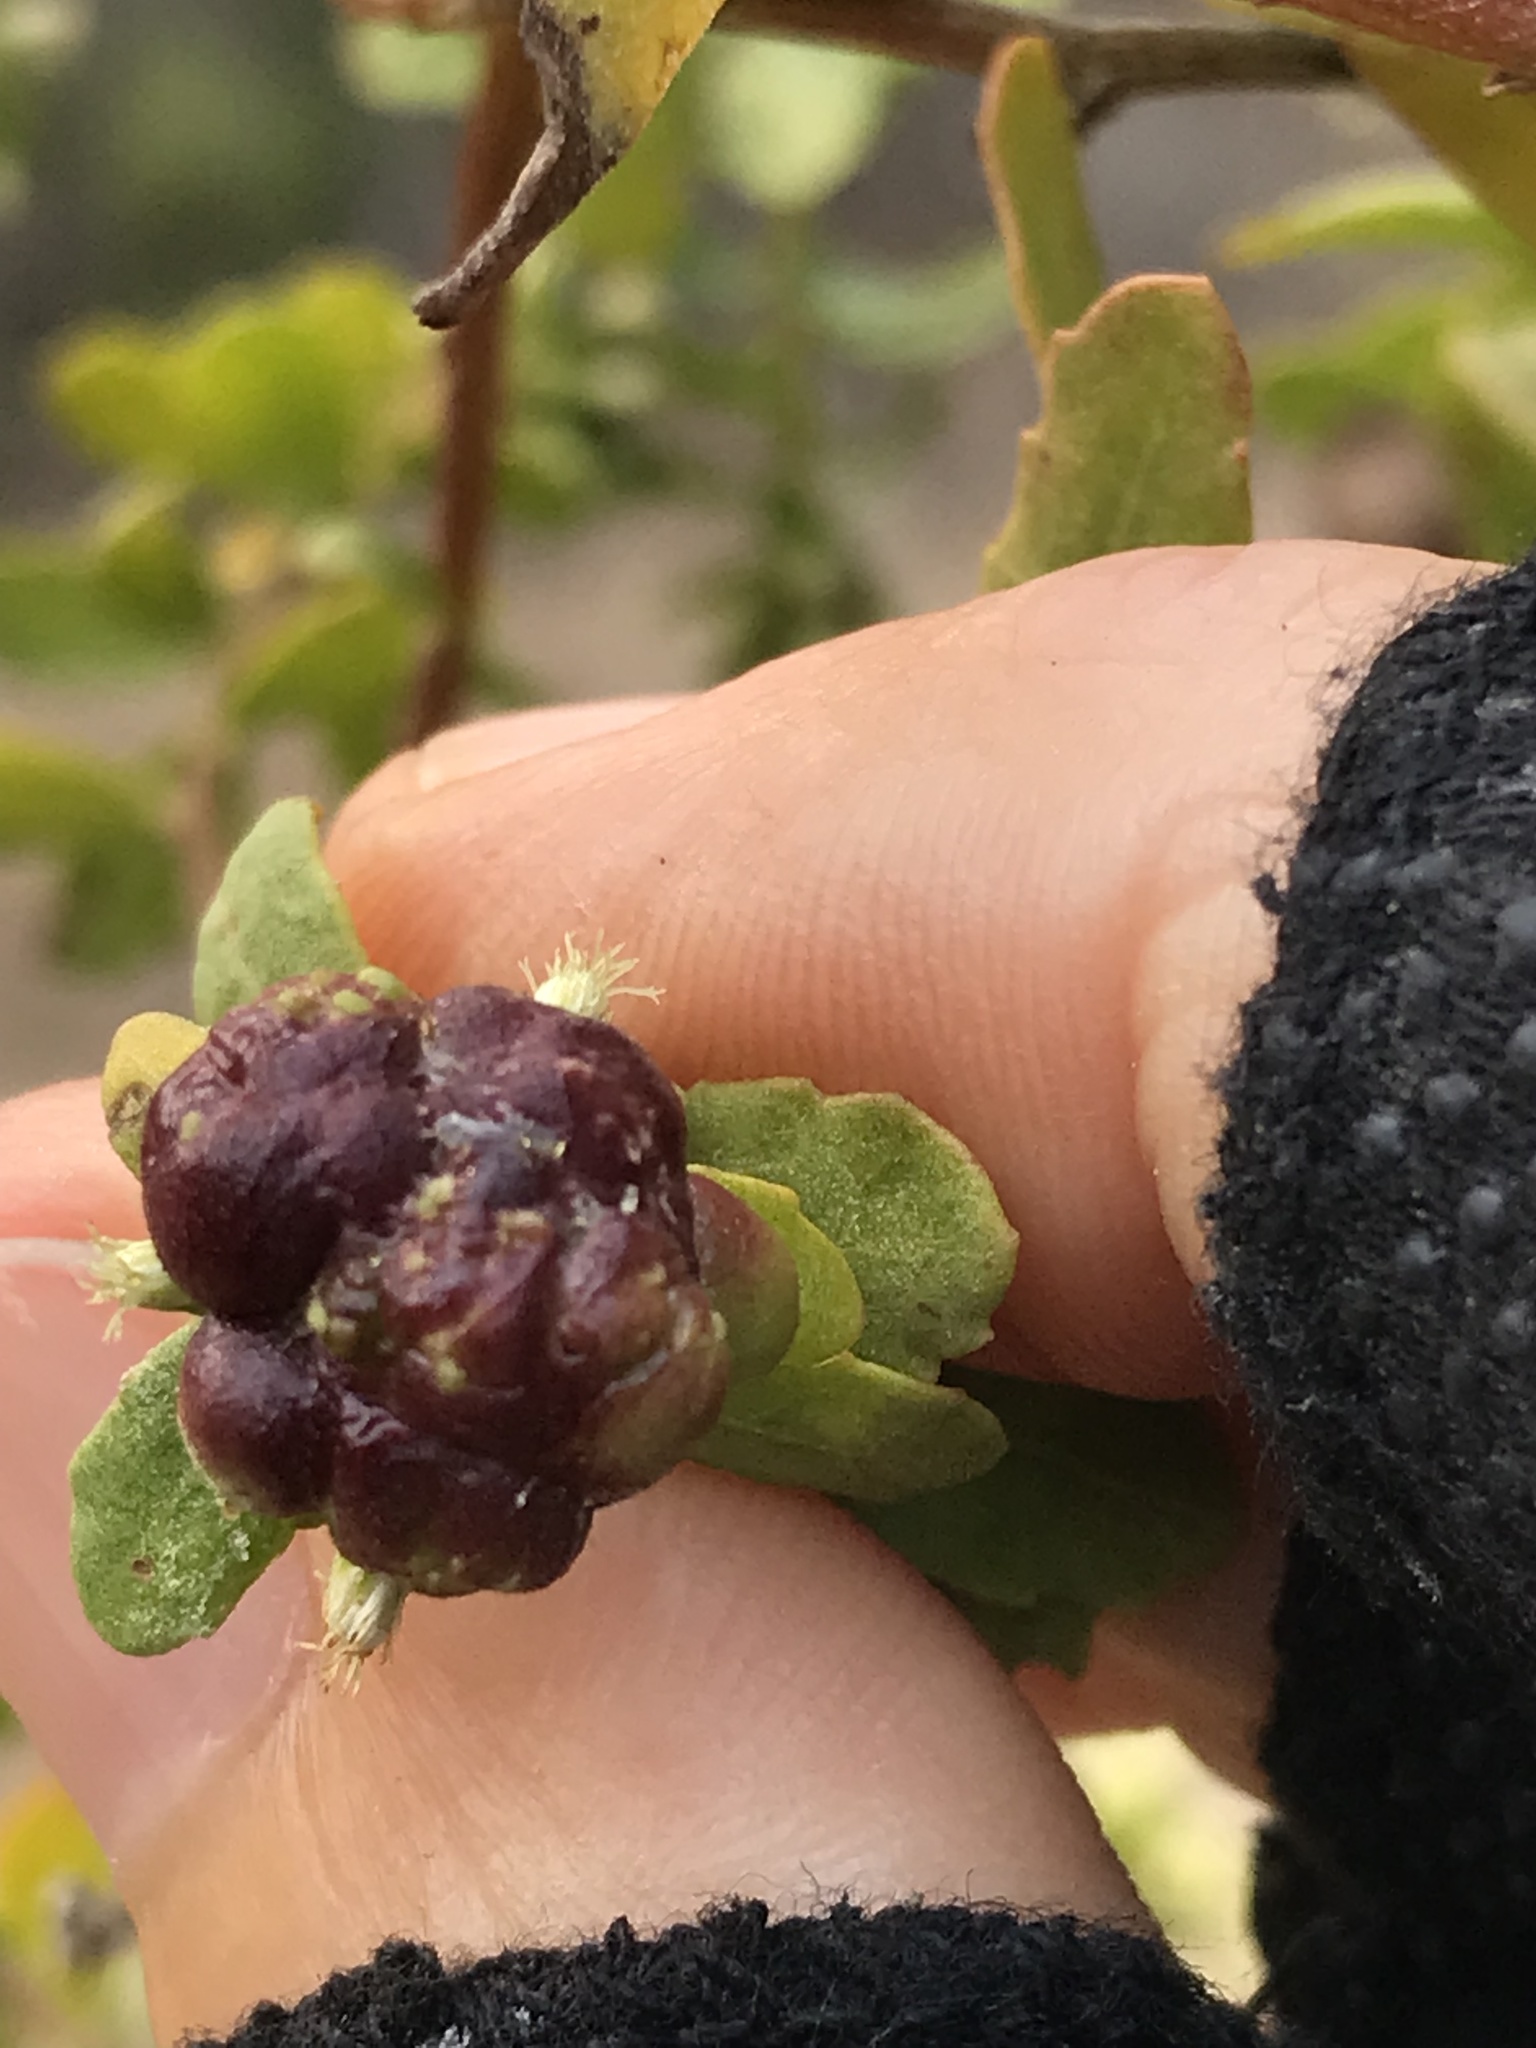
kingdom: Animalia
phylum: Arthropoda
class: Insecta
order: Diptera
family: Cecidomyiidae
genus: Rhopalomyia
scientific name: Rhopalomyia californica
